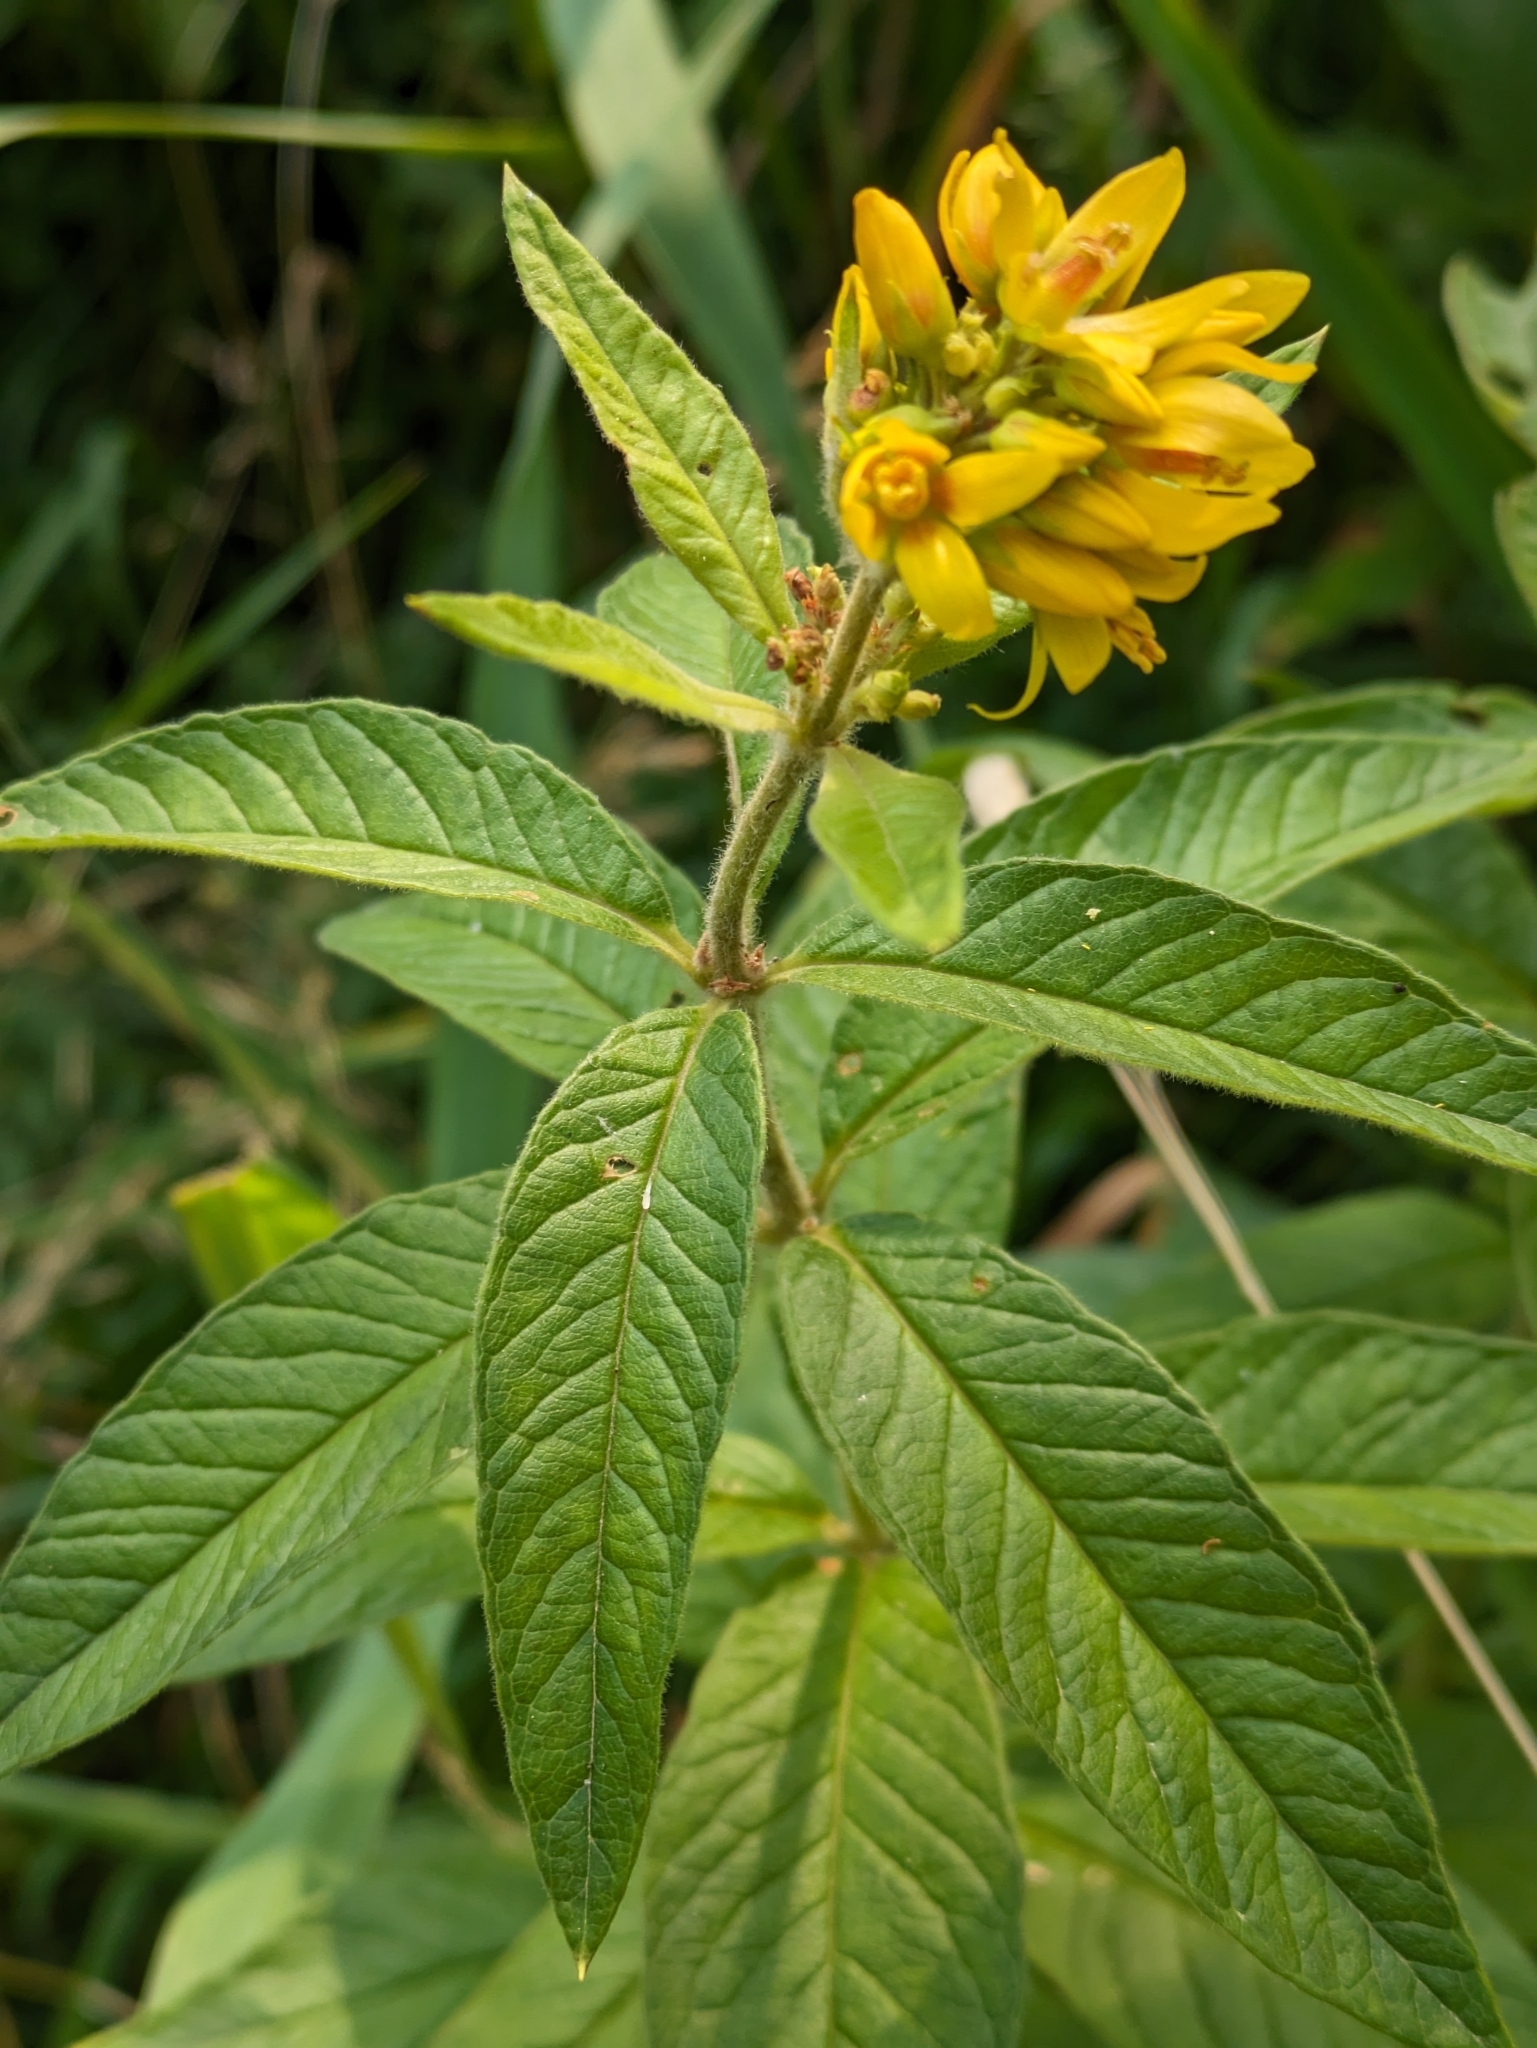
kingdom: Plantae
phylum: Tracheophyta
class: Magnoliopsida
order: Ericales
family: Primulaceae
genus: Lysimachia
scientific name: Lysimachia vulgaris
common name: Yellow loosestrife
